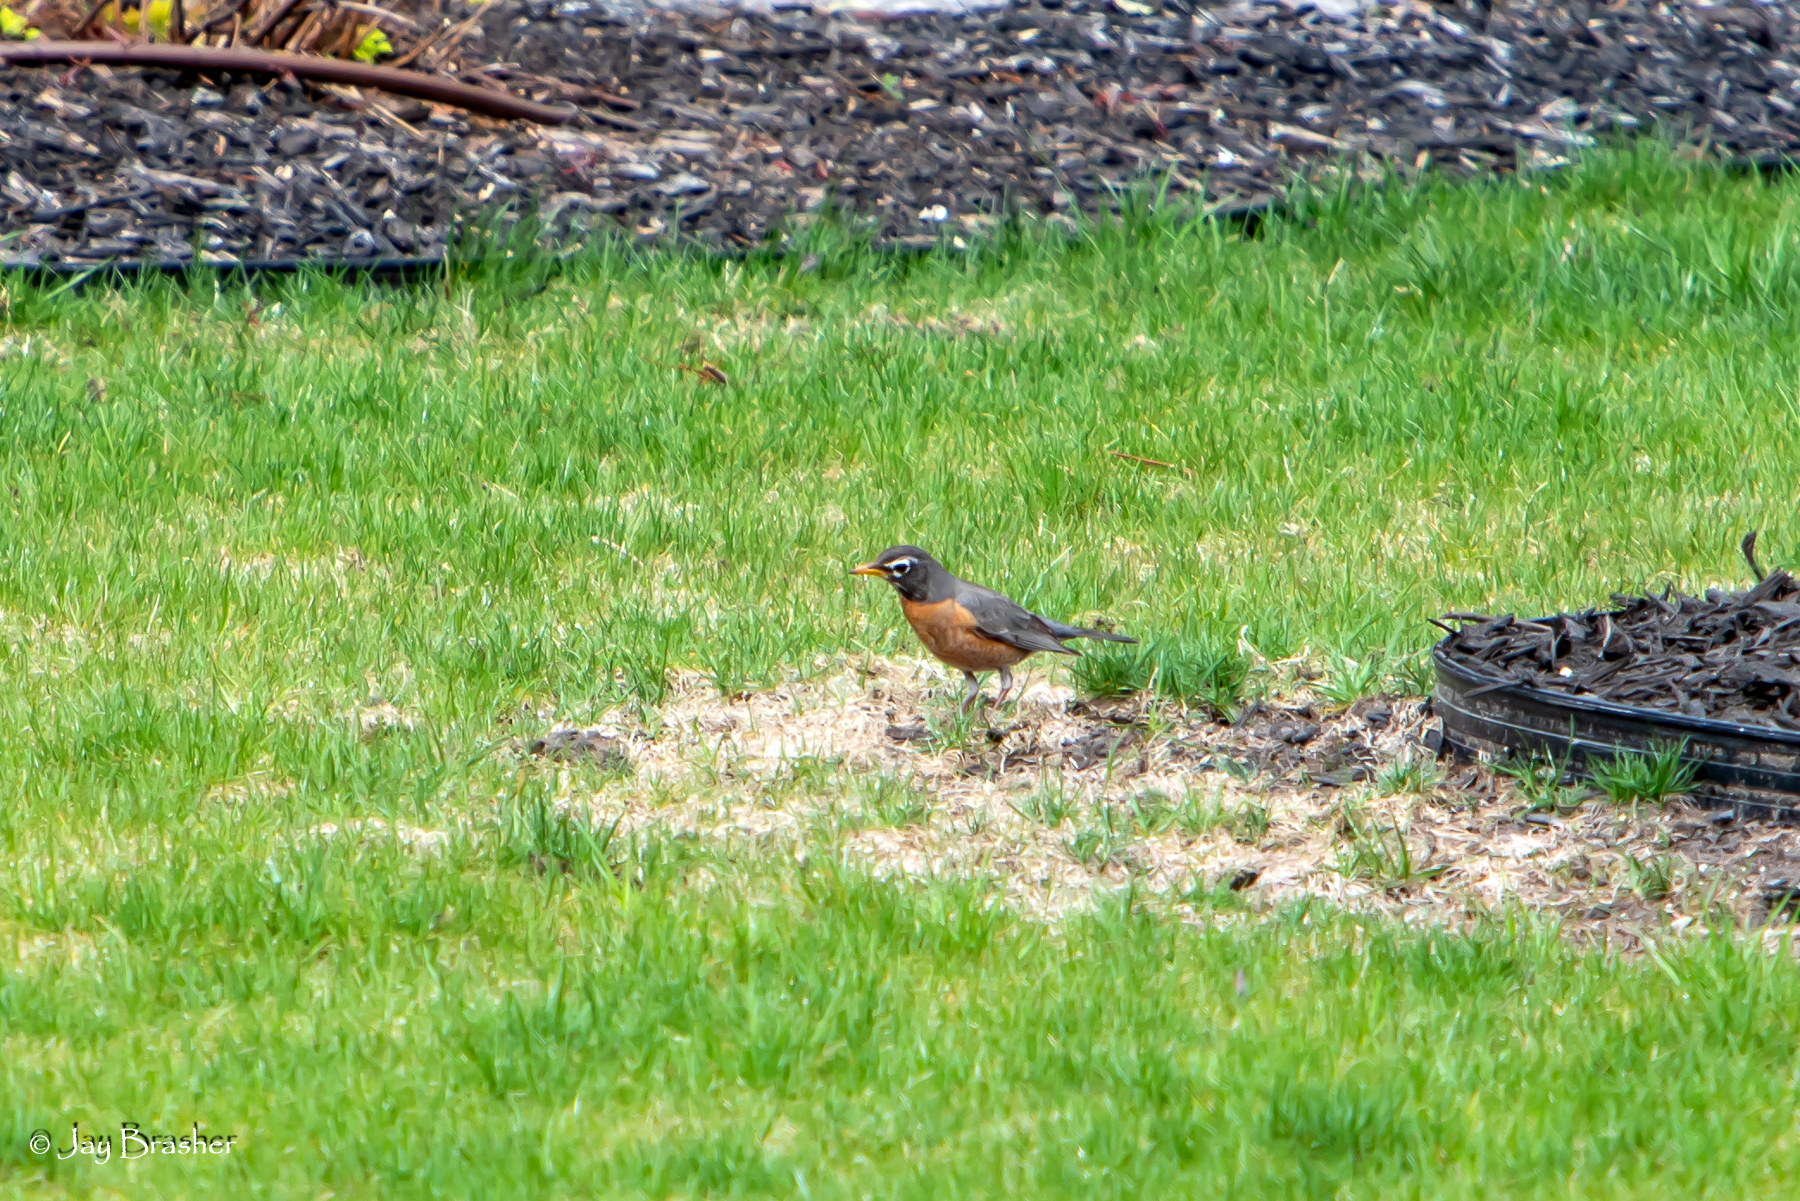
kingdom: Animalia
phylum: Chordata
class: Aves
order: Passeriformes
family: Turdidae
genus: Turdus
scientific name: Turdus migratorius
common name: American robin
